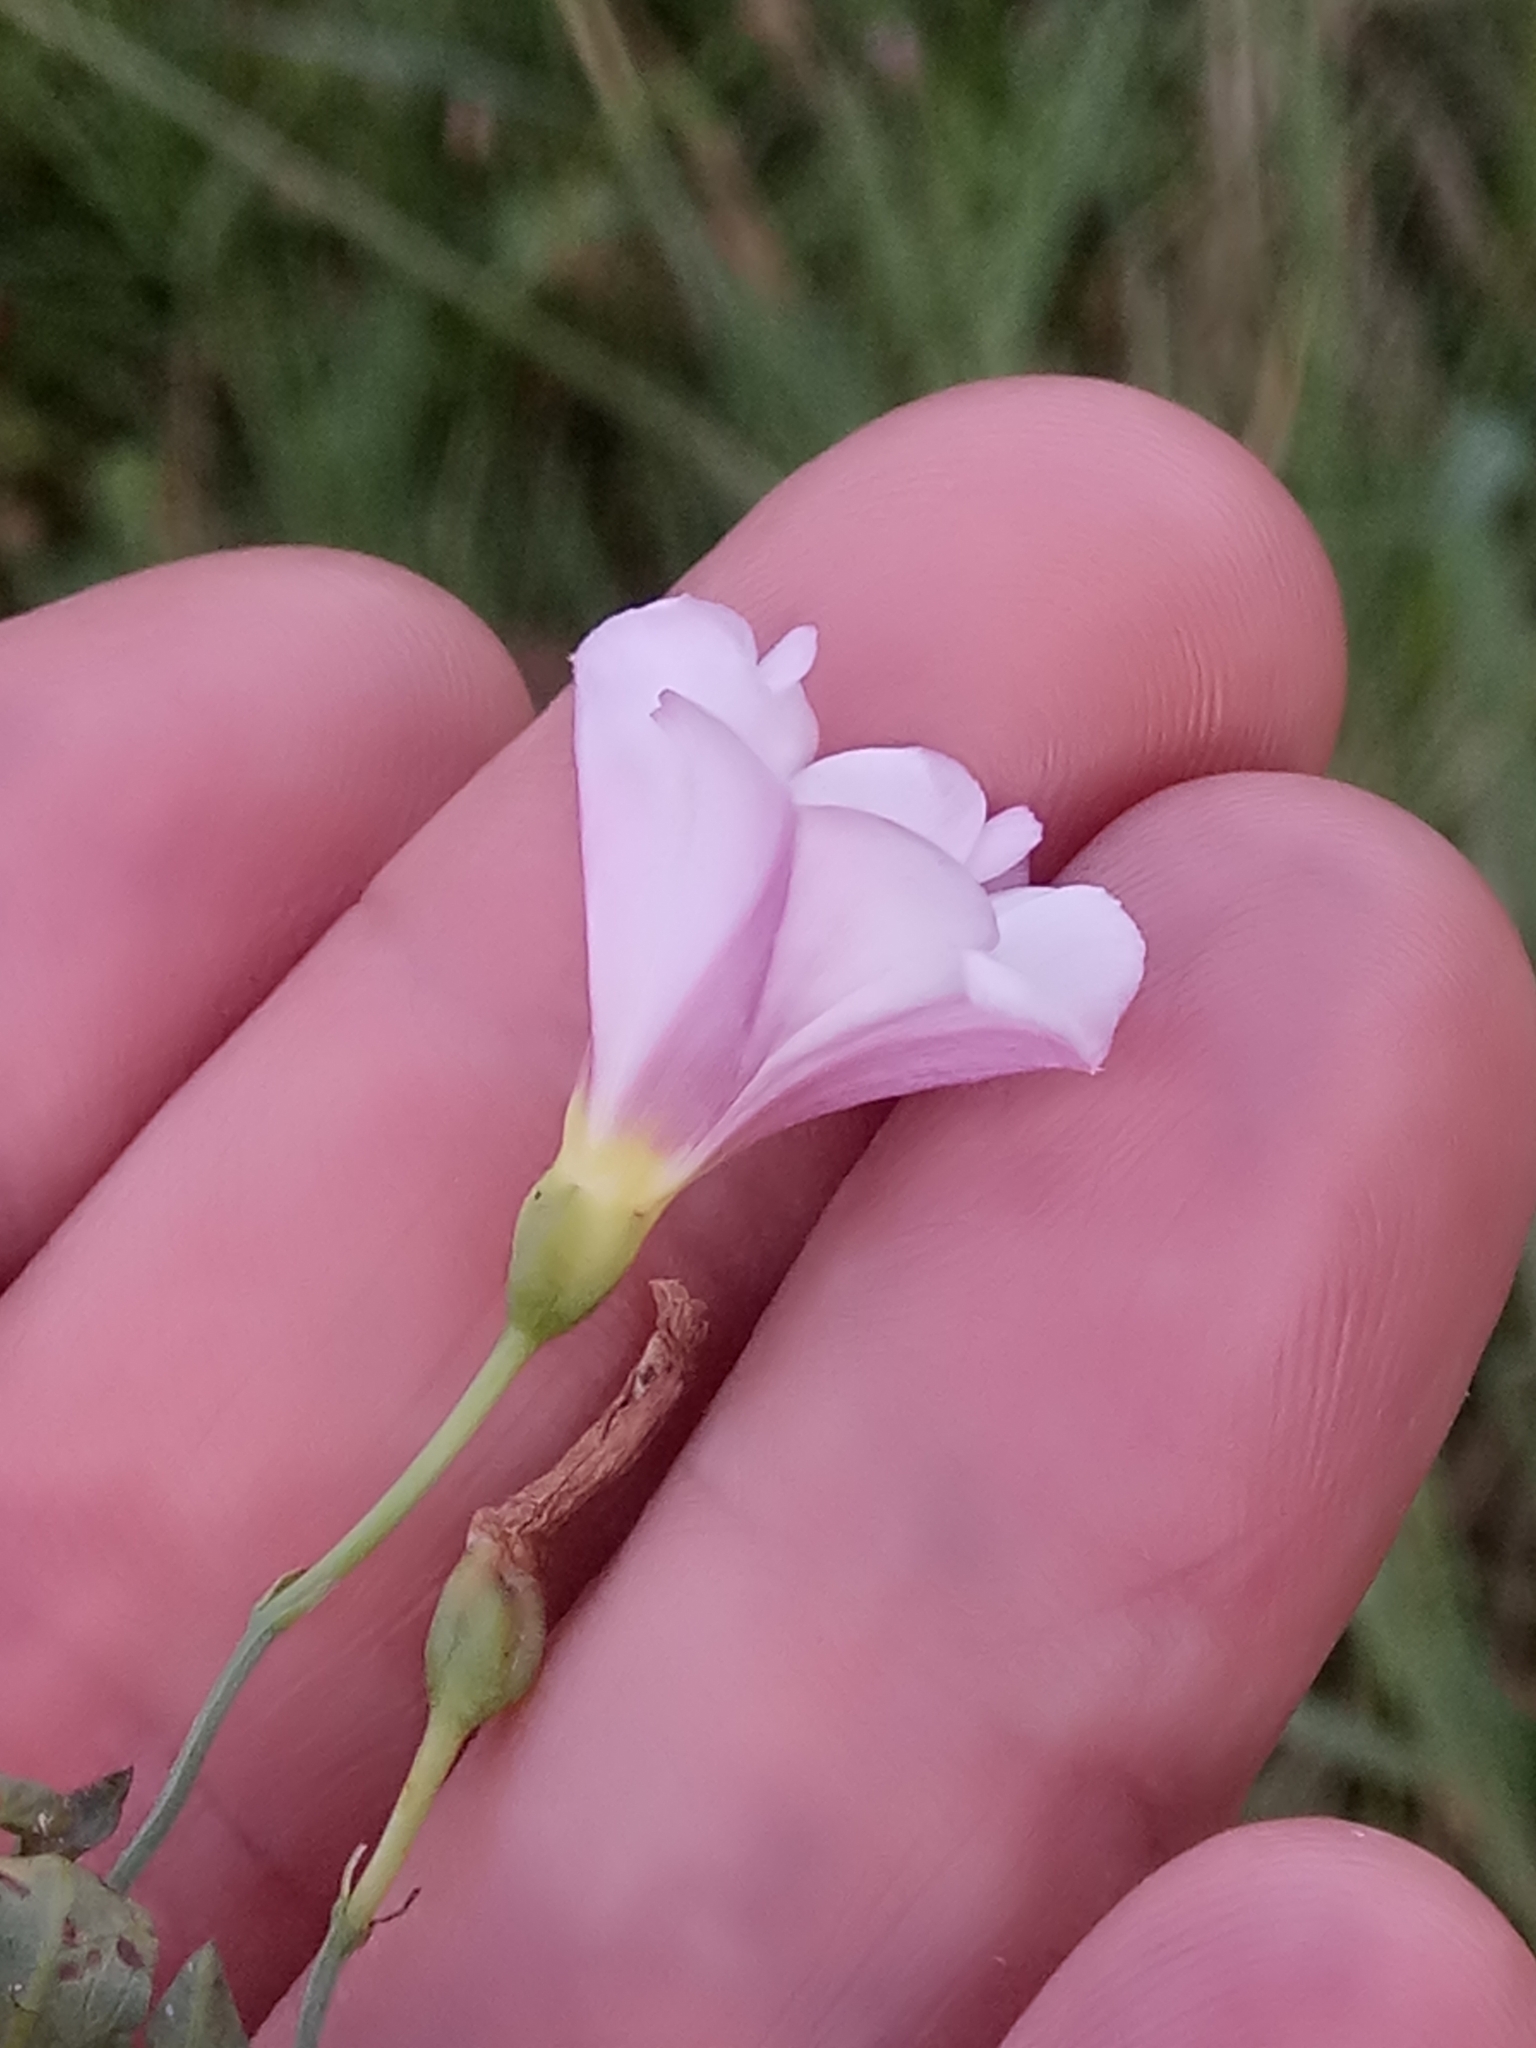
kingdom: Plantae
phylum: Tracheophyta
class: Magnoliopsida
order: Solanales
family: Convolvulaceae
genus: Convolvulus
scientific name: Convolvulus arvensis
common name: Field bindweed
